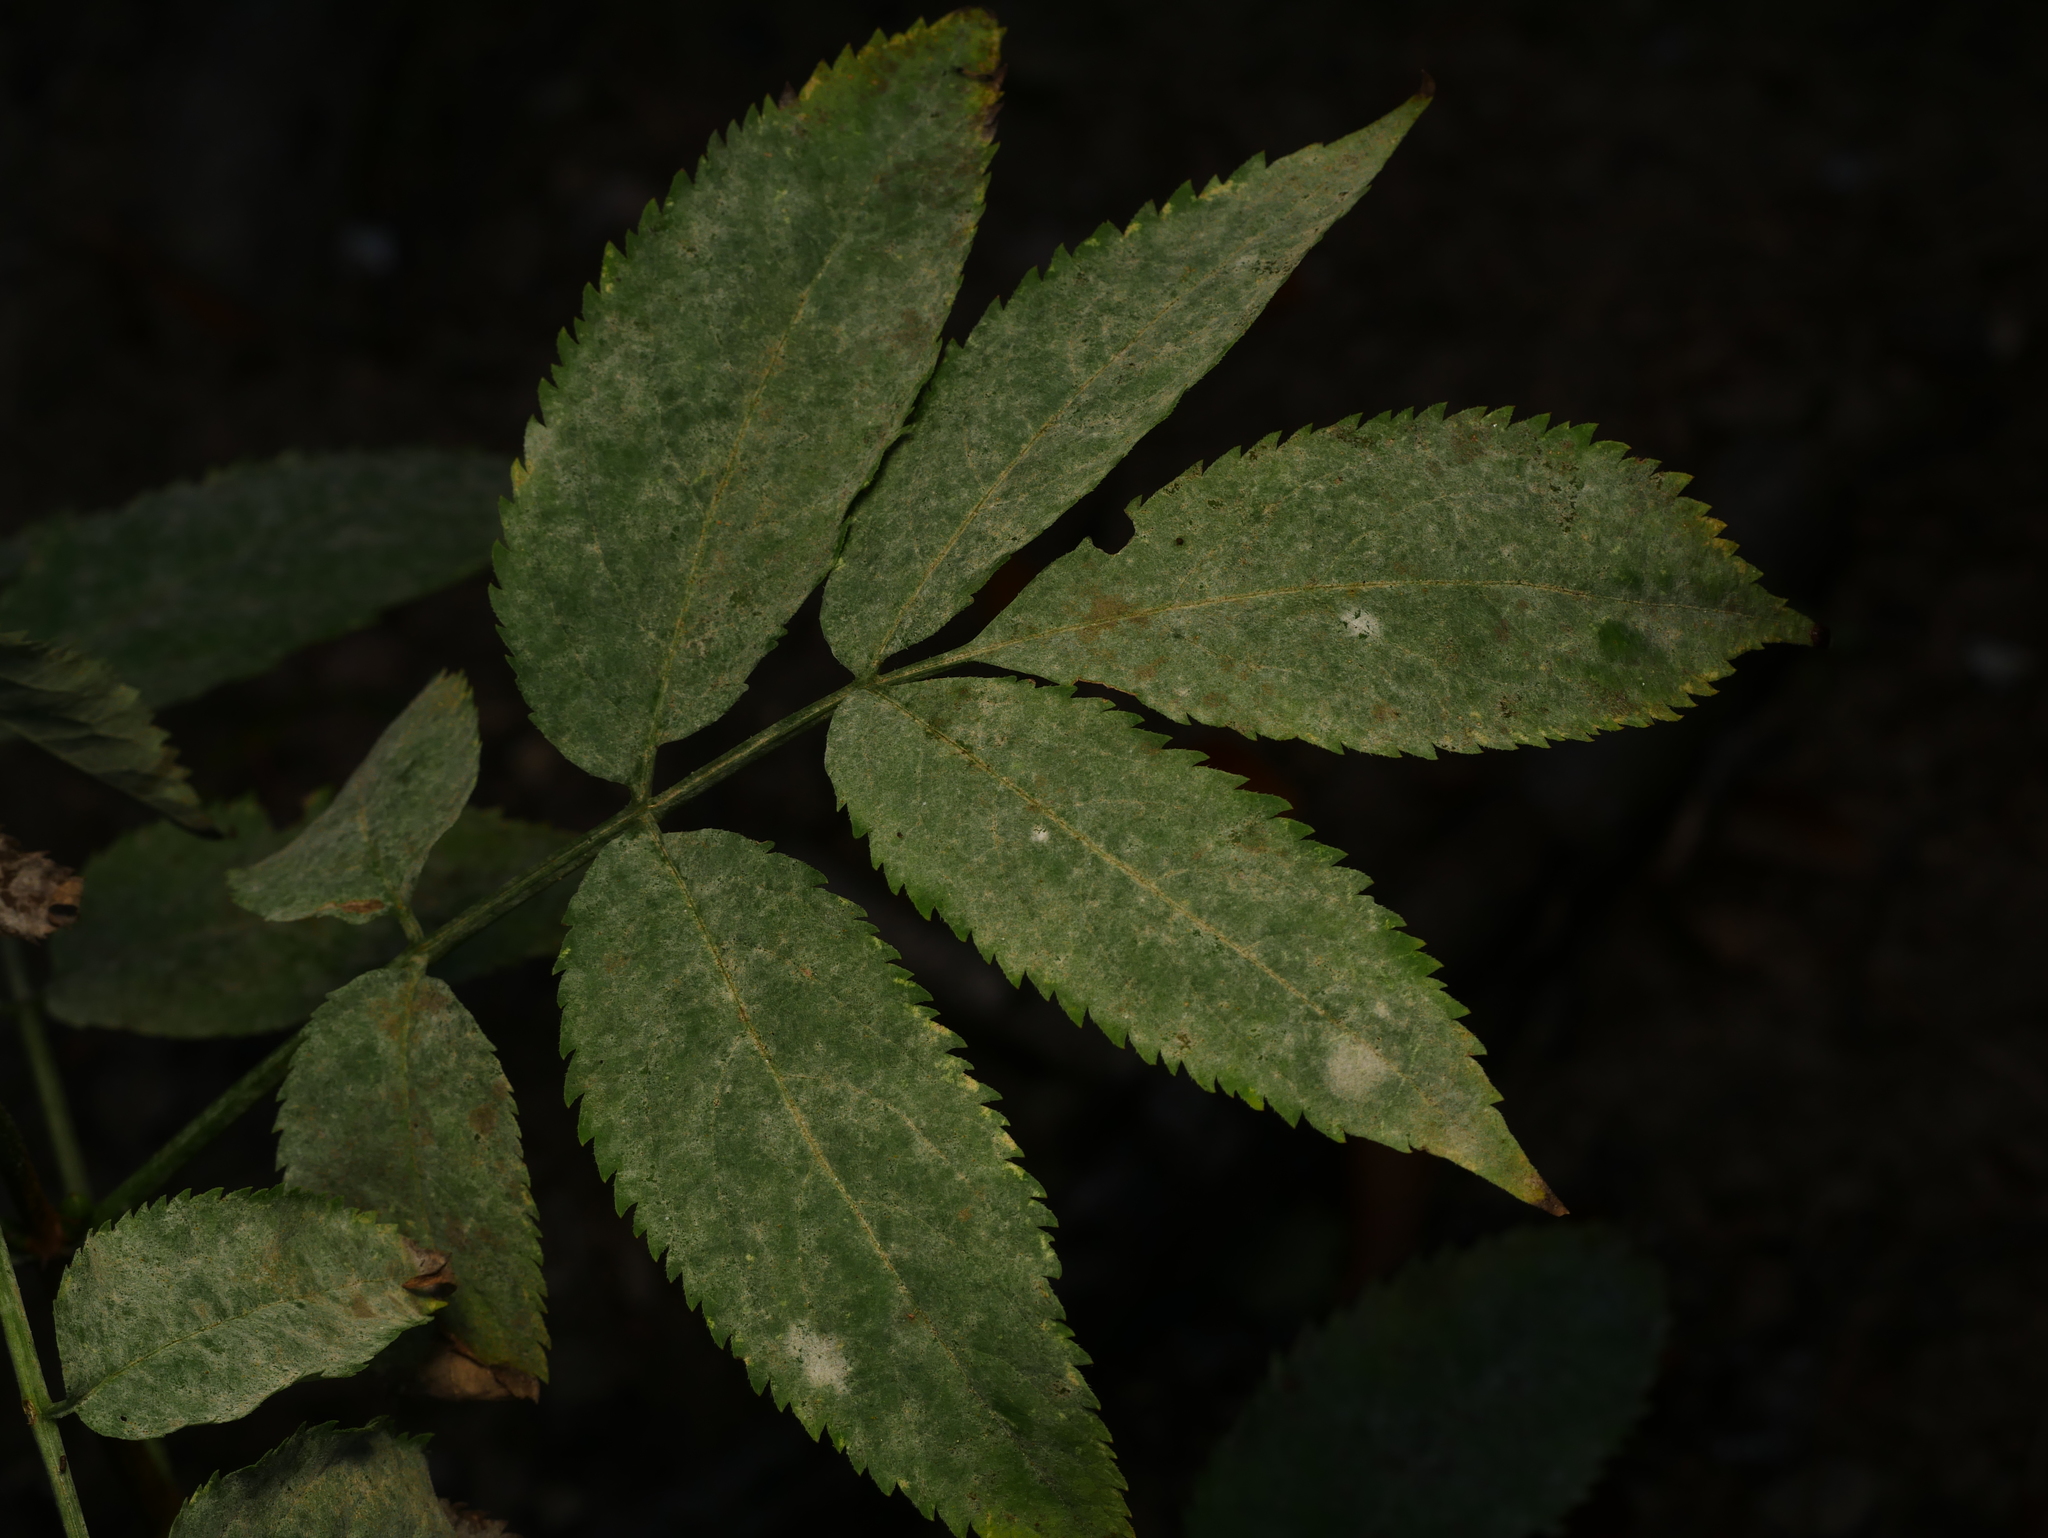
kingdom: Fungi
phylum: Ascomycota
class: Leotiomycetes
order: Helotiales
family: Erysiphaceae
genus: Erysiphe
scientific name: Erysiphe sambuci
